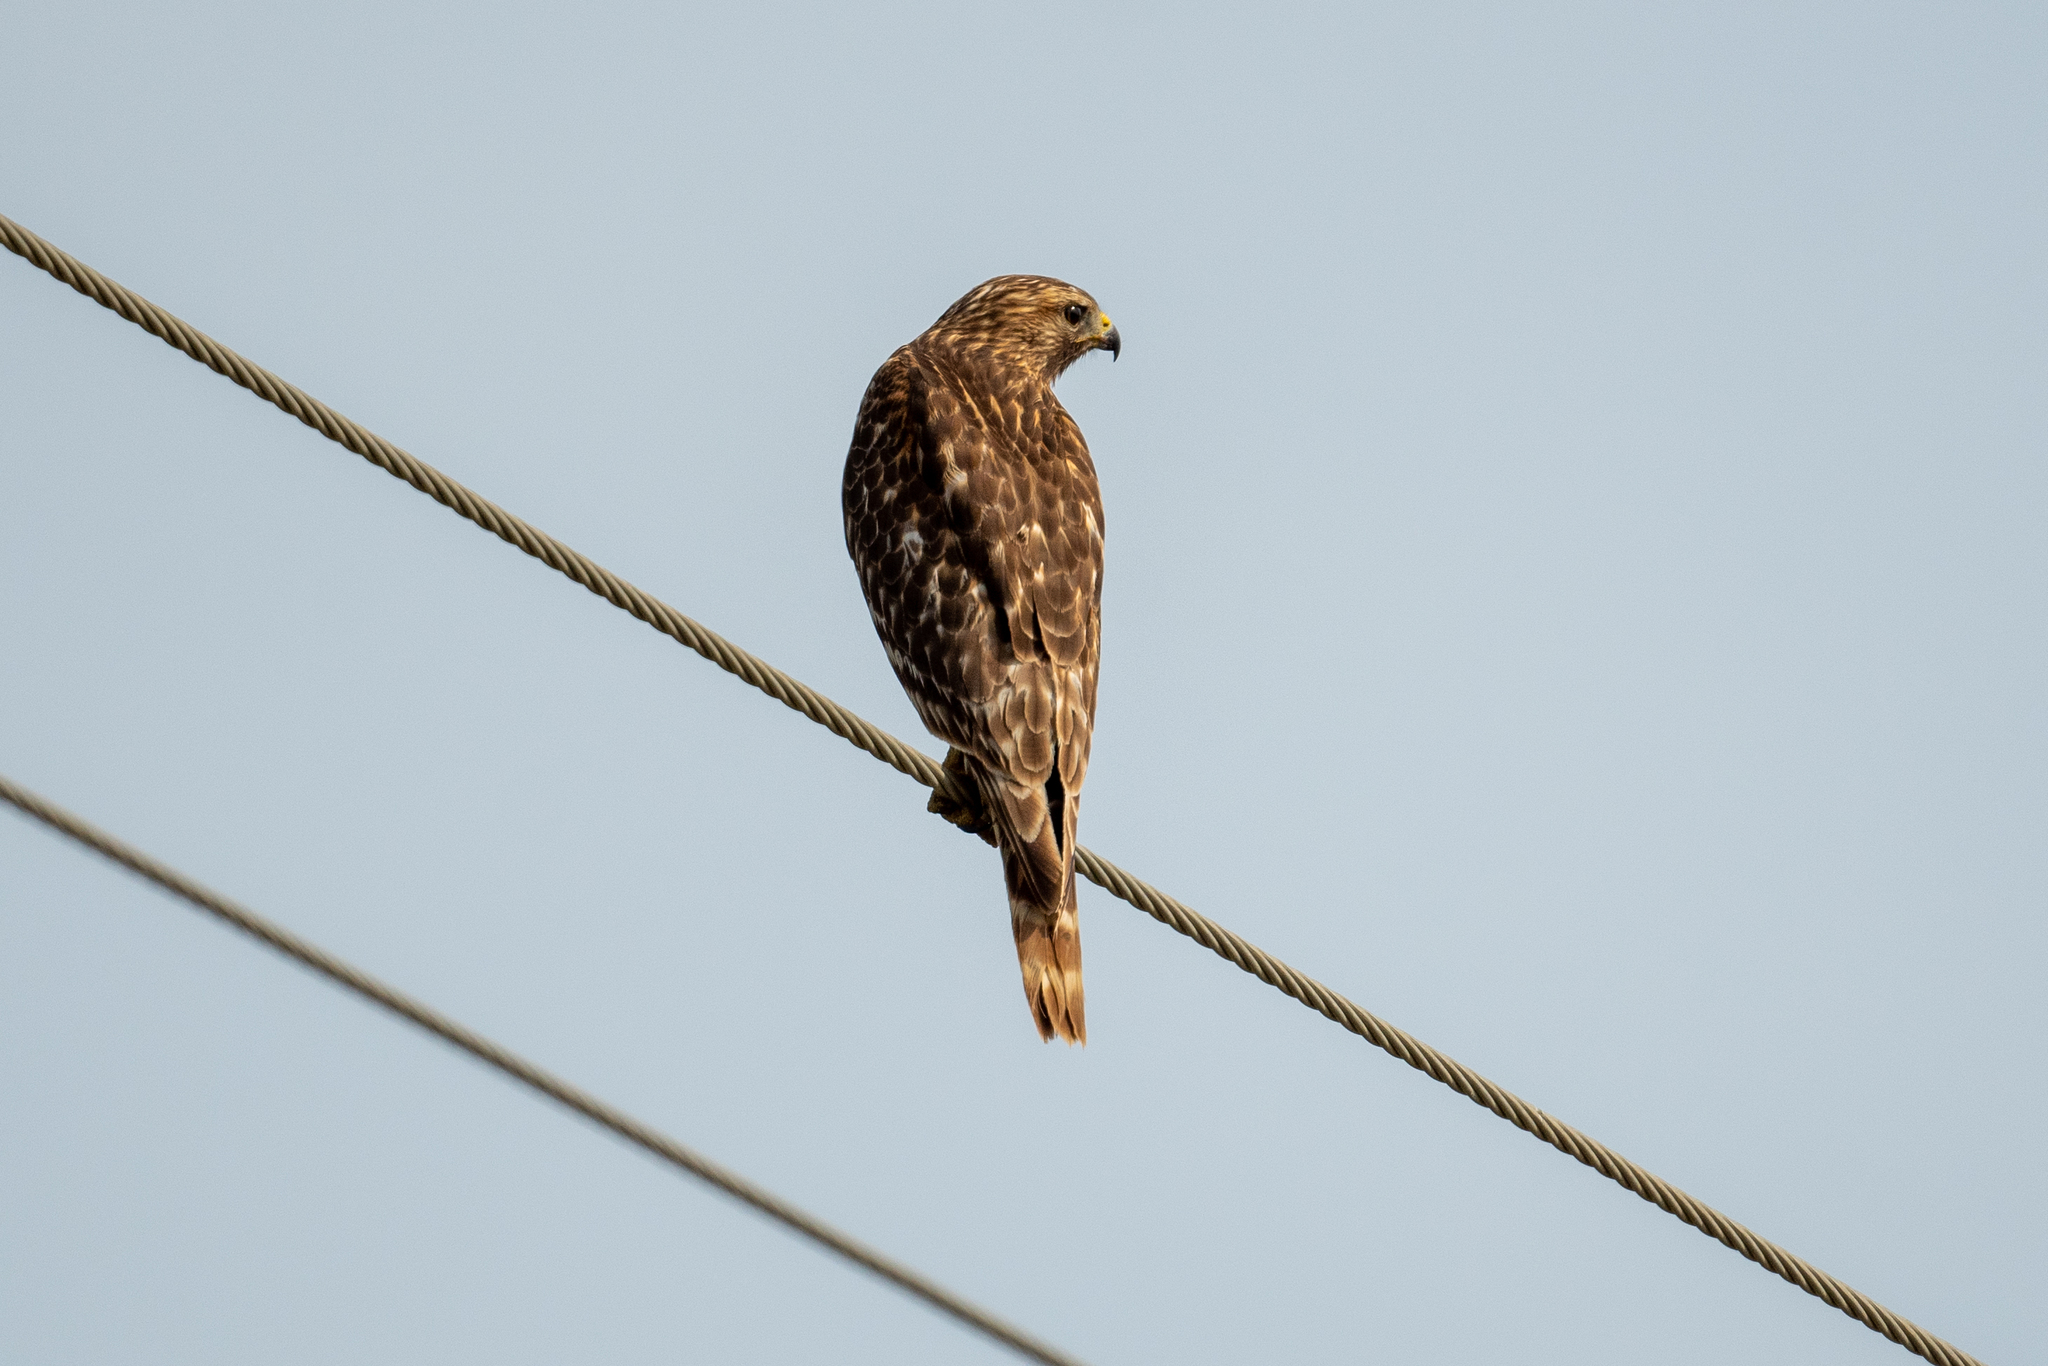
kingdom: Animalia
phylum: Chordata
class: Aves
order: Accipitriformes
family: Accipitridae
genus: Buteo
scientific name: Buteo lineatus
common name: Red-shouldered hawk
